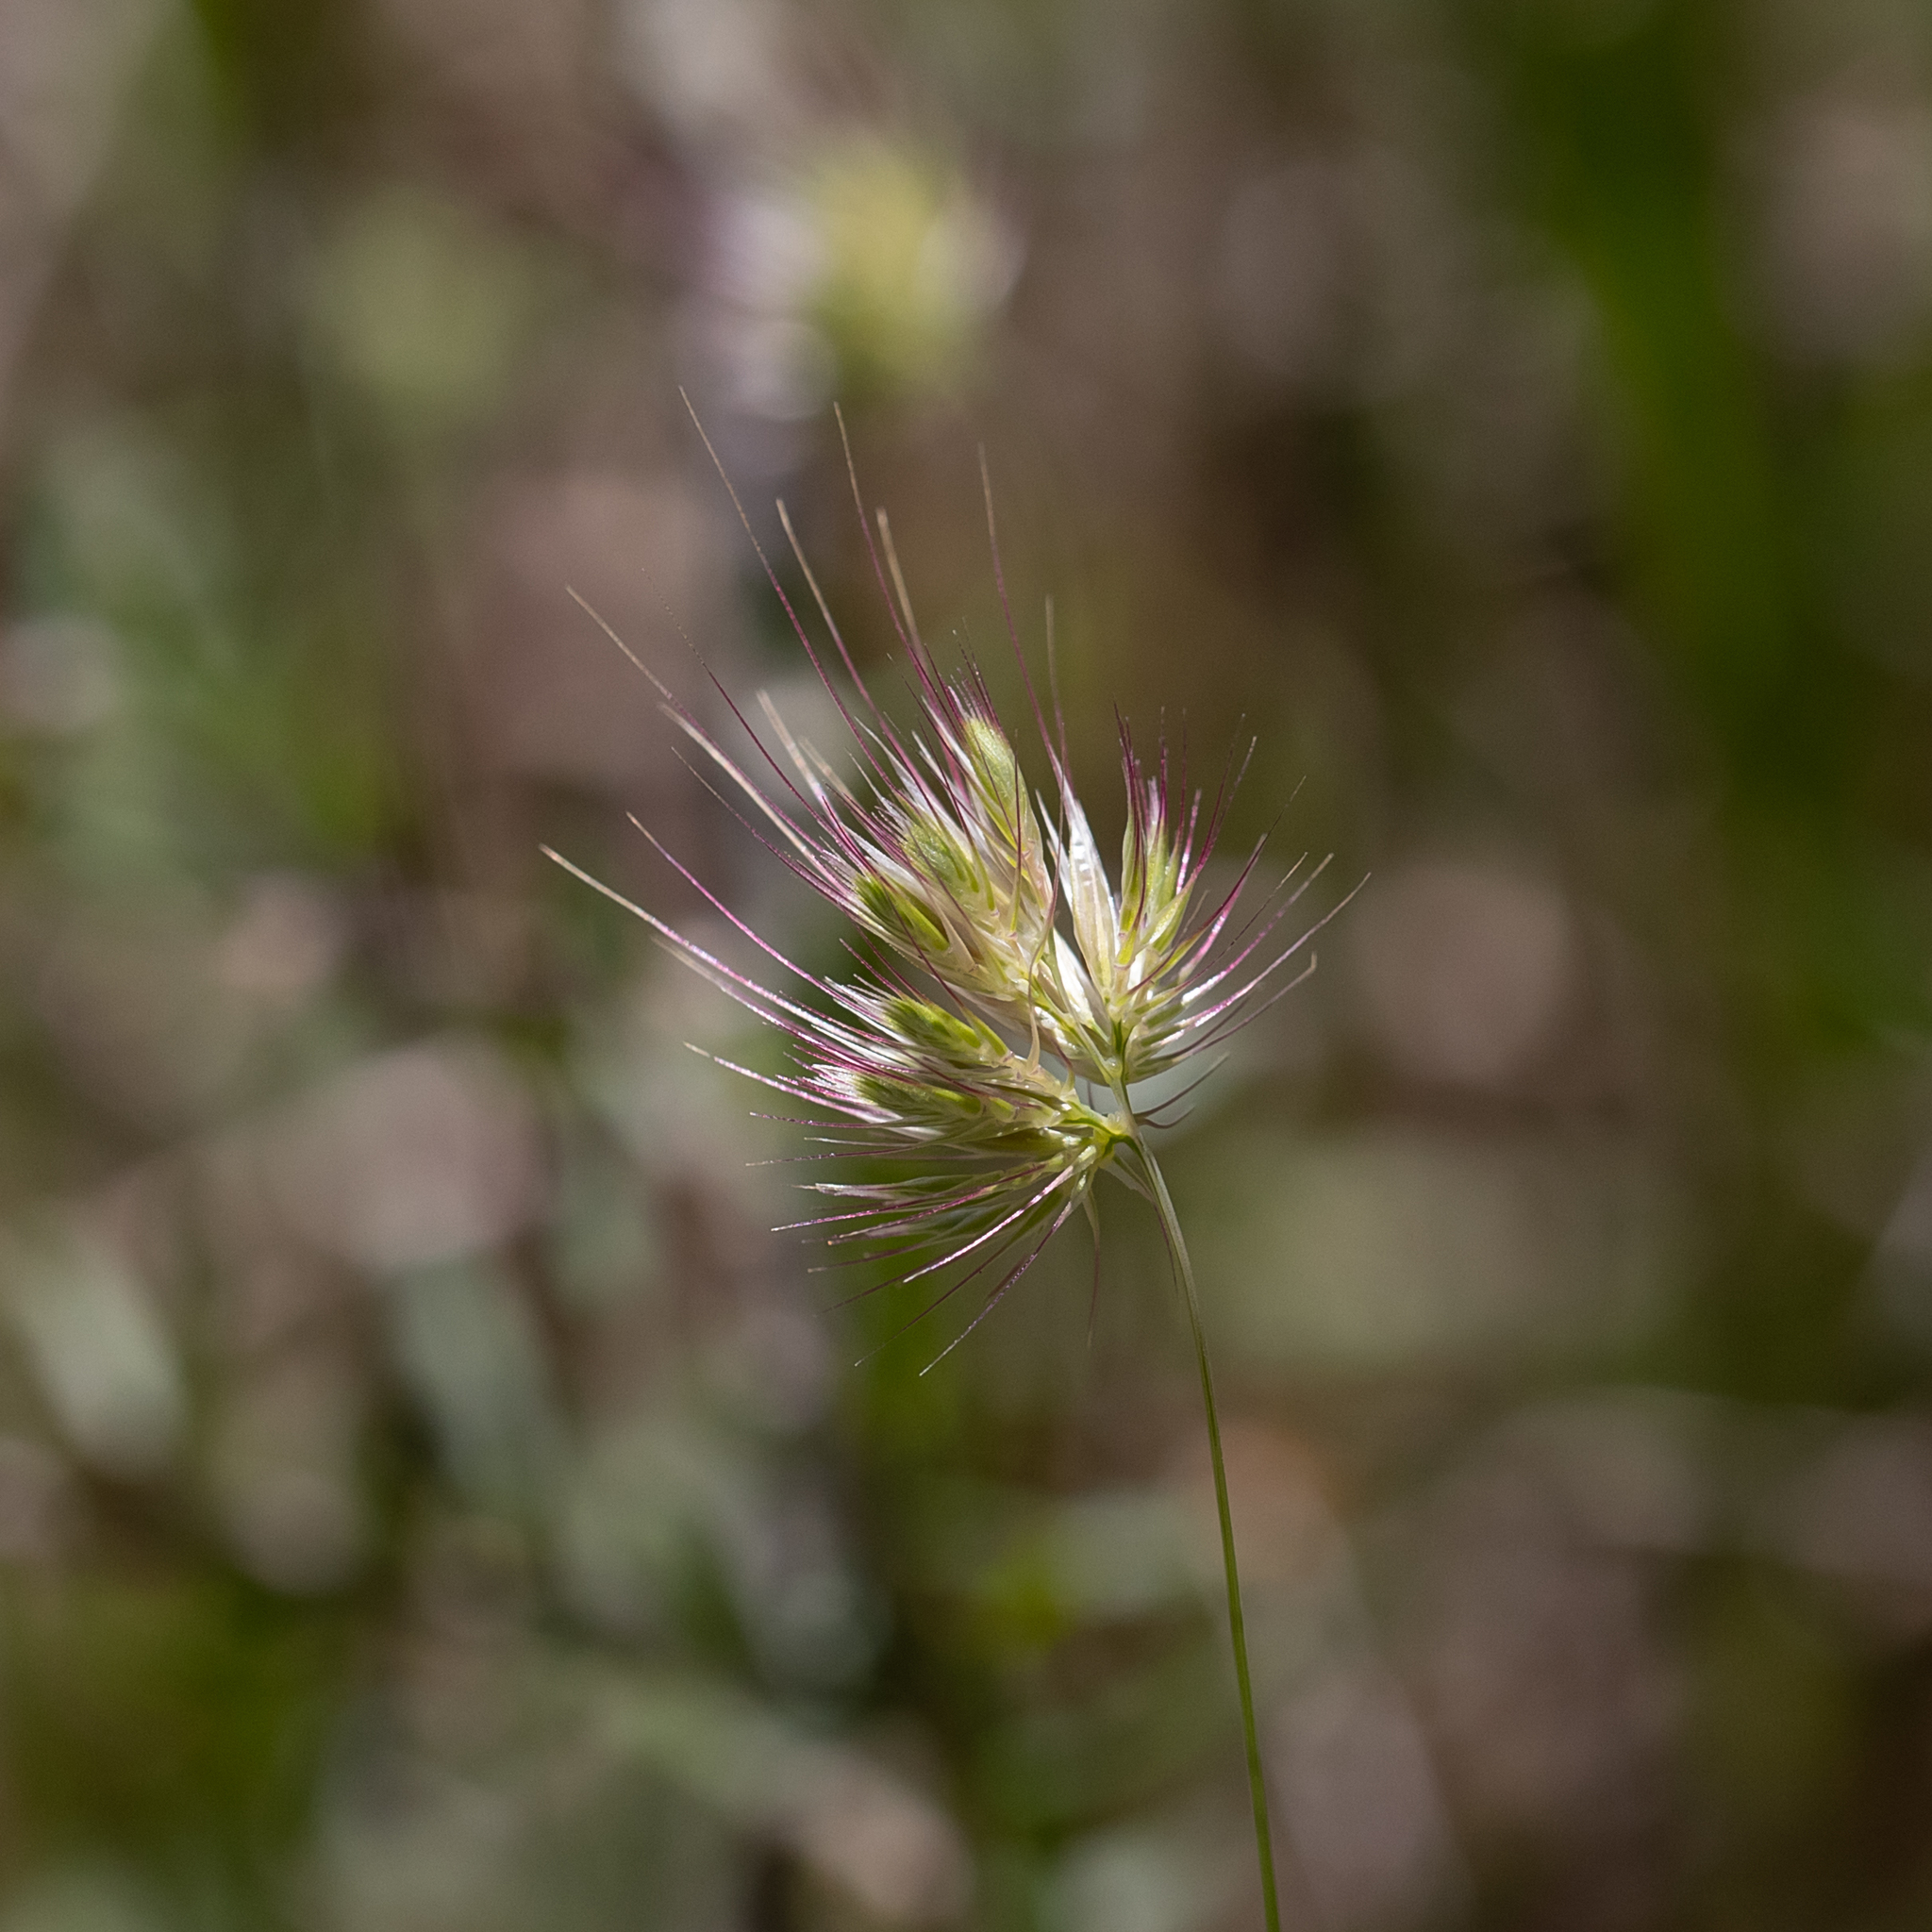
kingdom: Plantae
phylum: Tracheophyta
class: Liliopsida
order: Poales
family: Poaceae
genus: Cynosurus
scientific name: Cynosurus echinatus
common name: Rough dog's-tail
